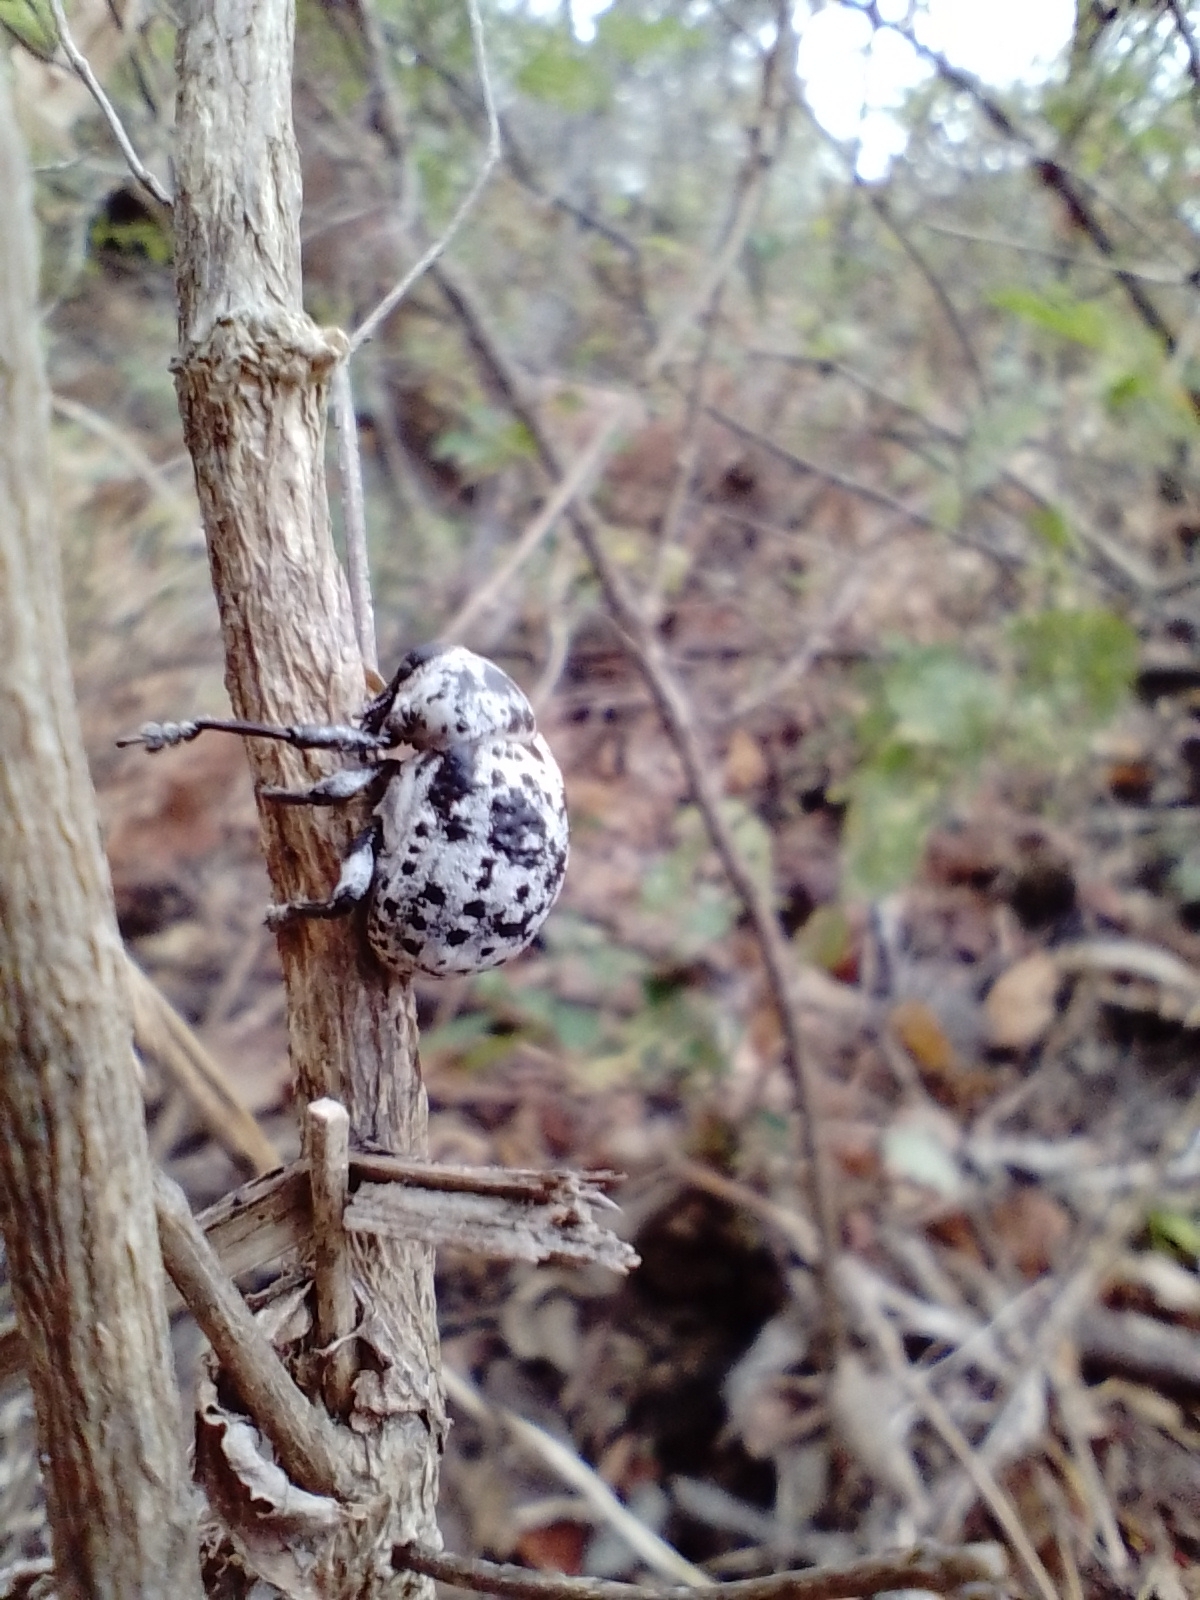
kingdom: Animalia
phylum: Arthropoda
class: Insecta
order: Coleoptera
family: Curculionidae
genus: Guioperus
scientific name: Guioperus sexsignatus
